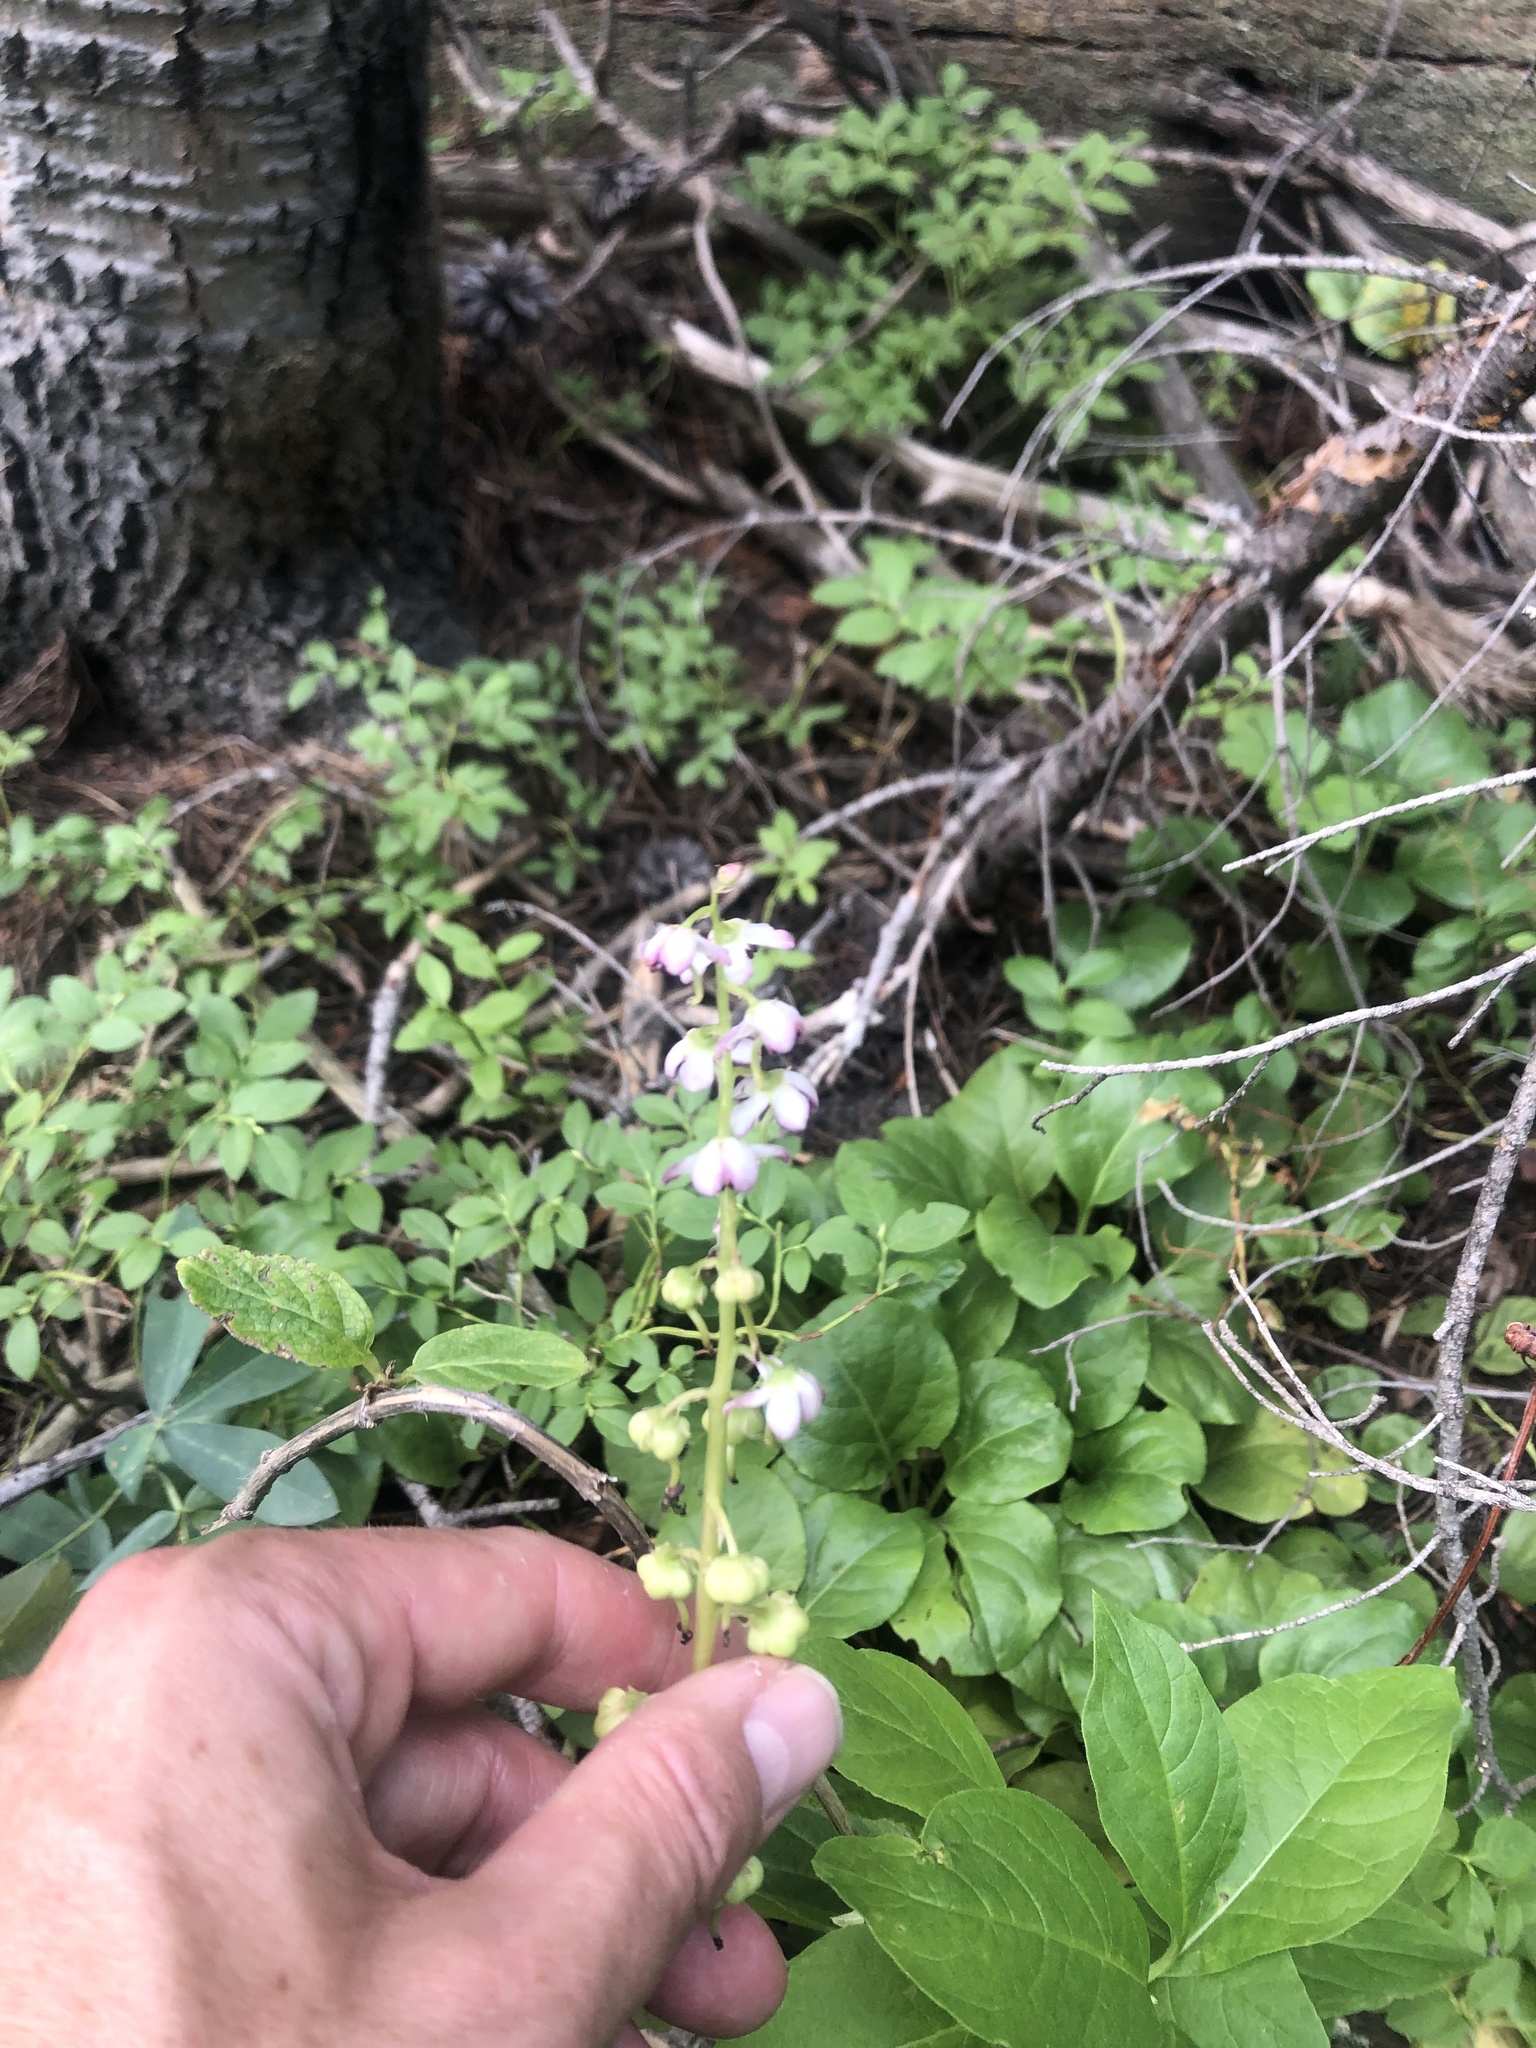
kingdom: Plantae
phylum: Tracheophyta
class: Magnoliopsida
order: Ericales
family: Ericaceae
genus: Pyrola
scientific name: Pyrola asarifolia
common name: Bog wintergreen
